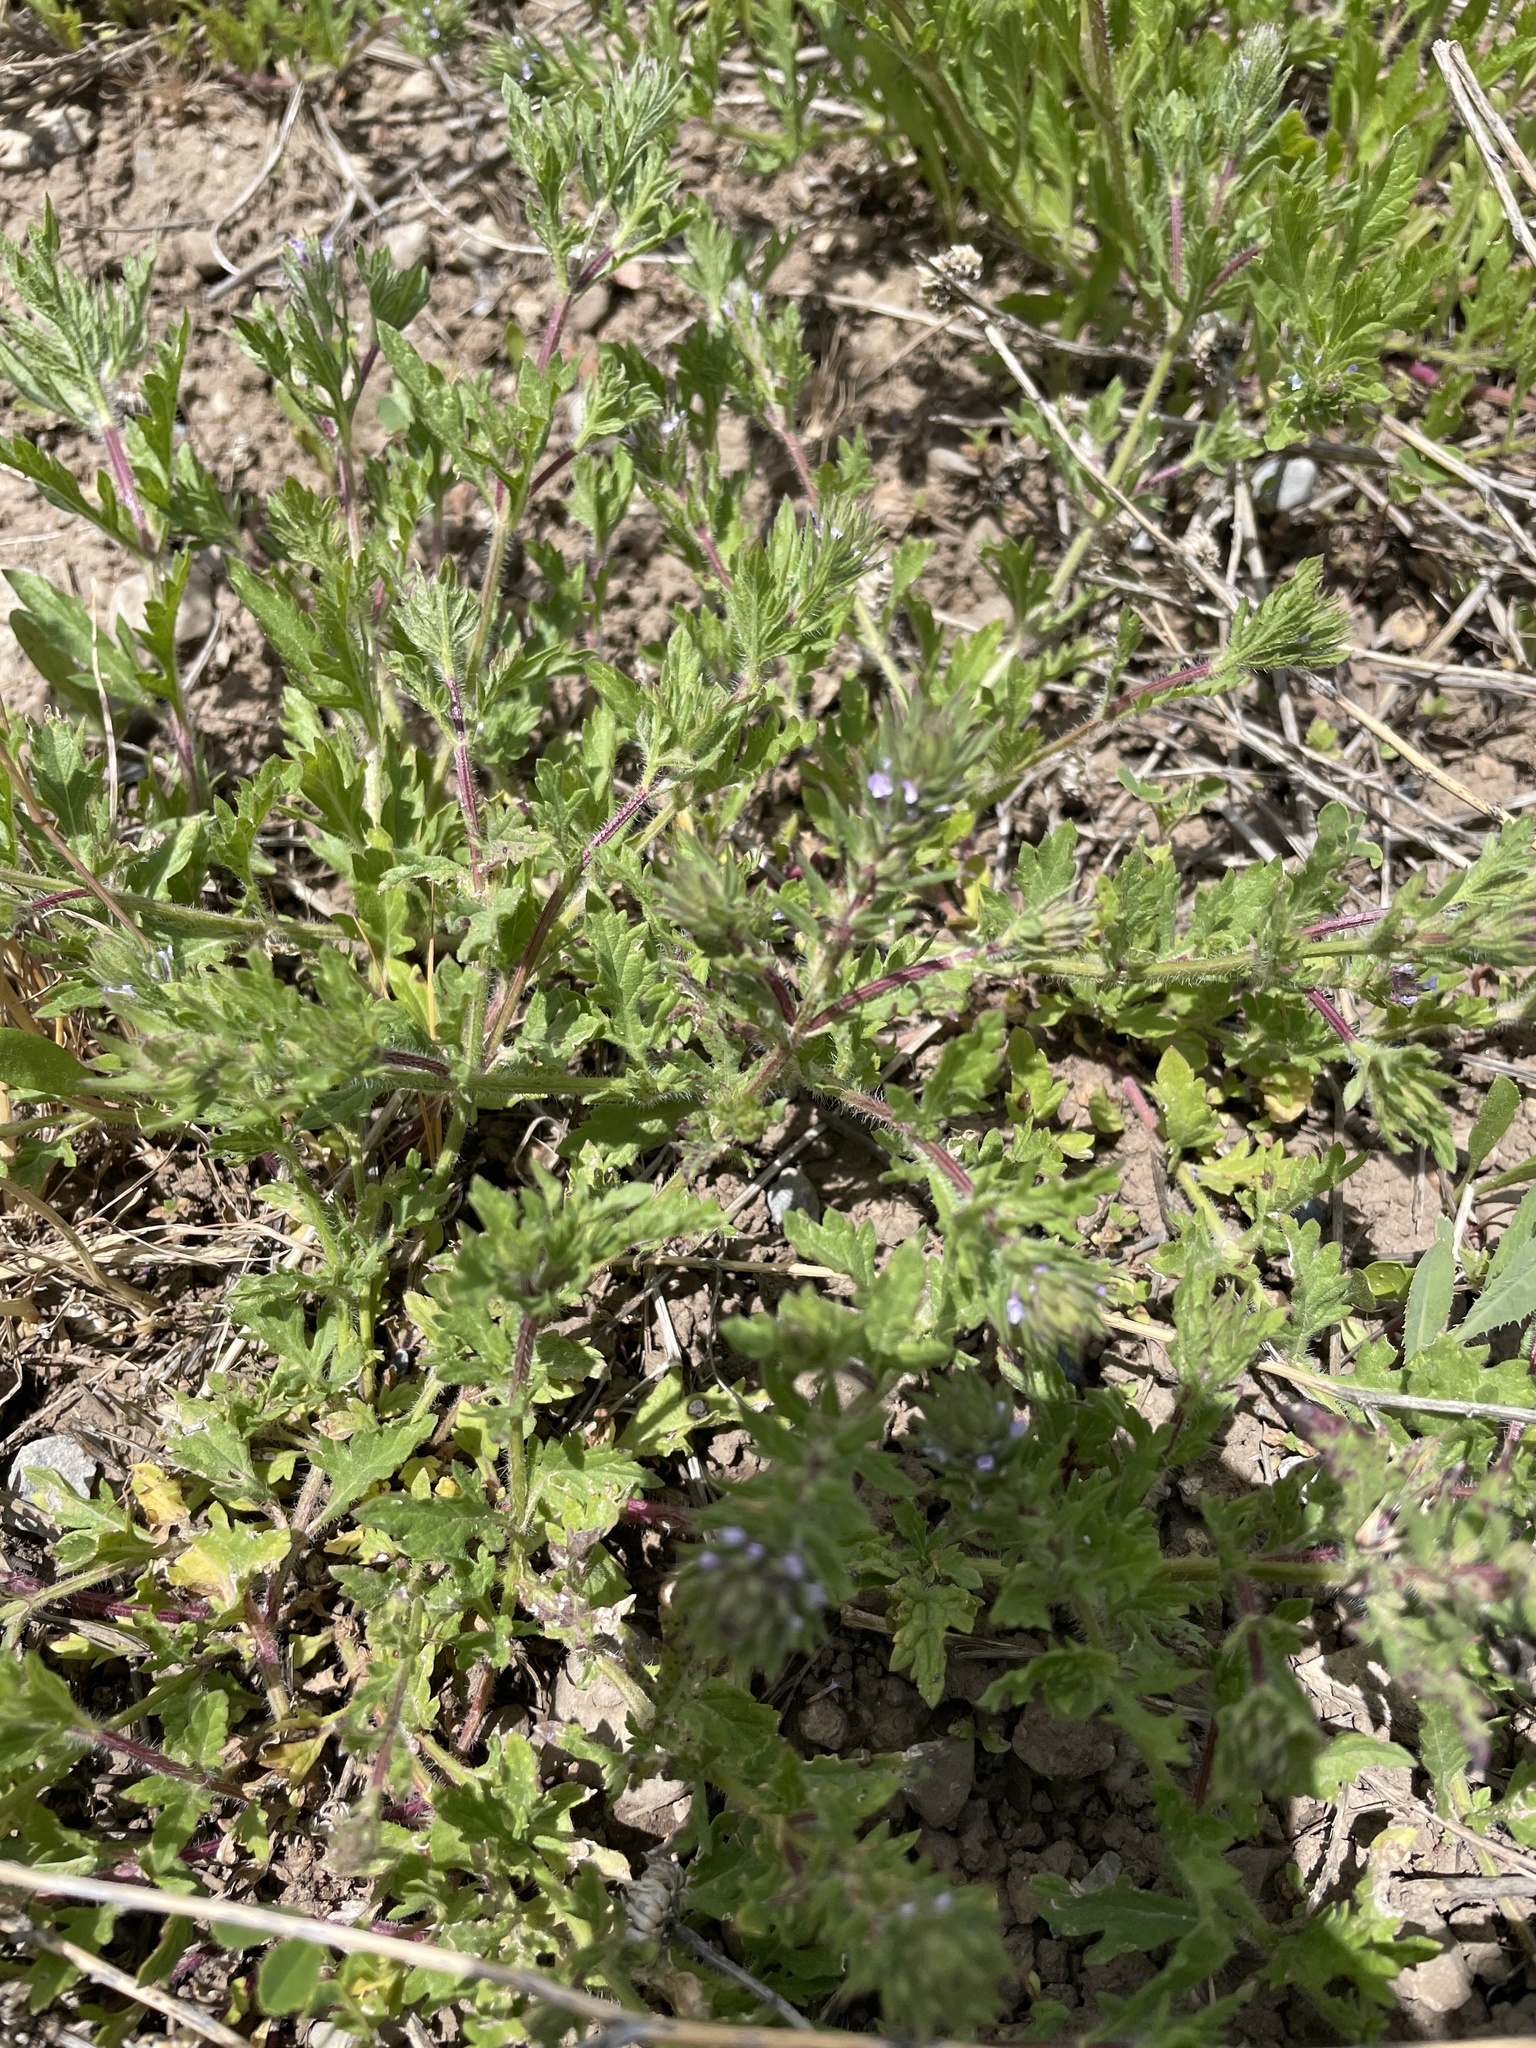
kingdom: Plantae
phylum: Tracheophyta
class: Magnoliopsida
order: Lamiales
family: Verbenaceae
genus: Verbena
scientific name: Verbena bracteata
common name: Bracted vervain
